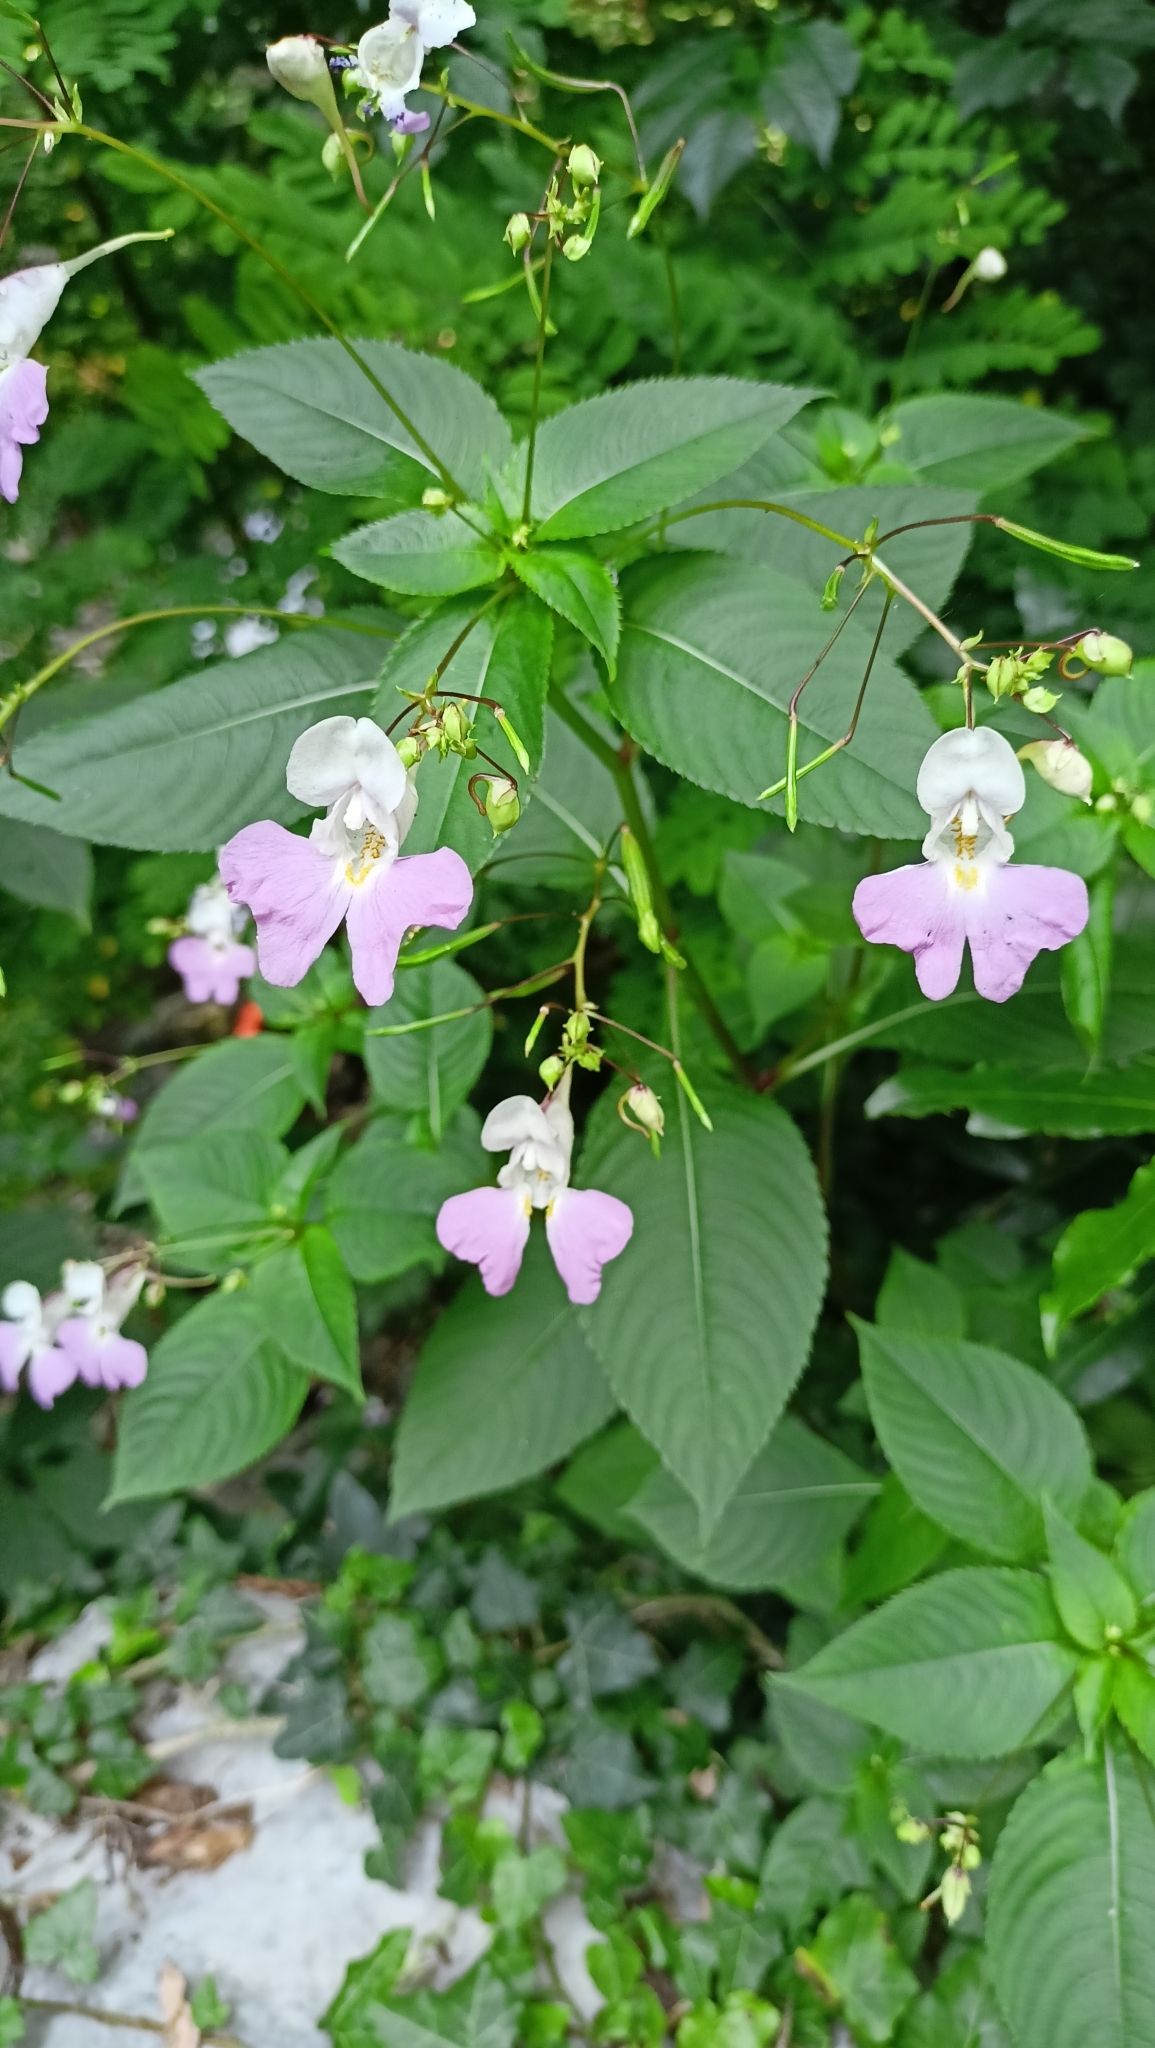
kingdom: Plantae
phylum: Tracheophyta
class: Magnoliopsida
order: Ericales
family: Balsaminaceae
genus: Impatiens
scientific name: Impatiens balfourii
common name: Balfour's touch-me-not
